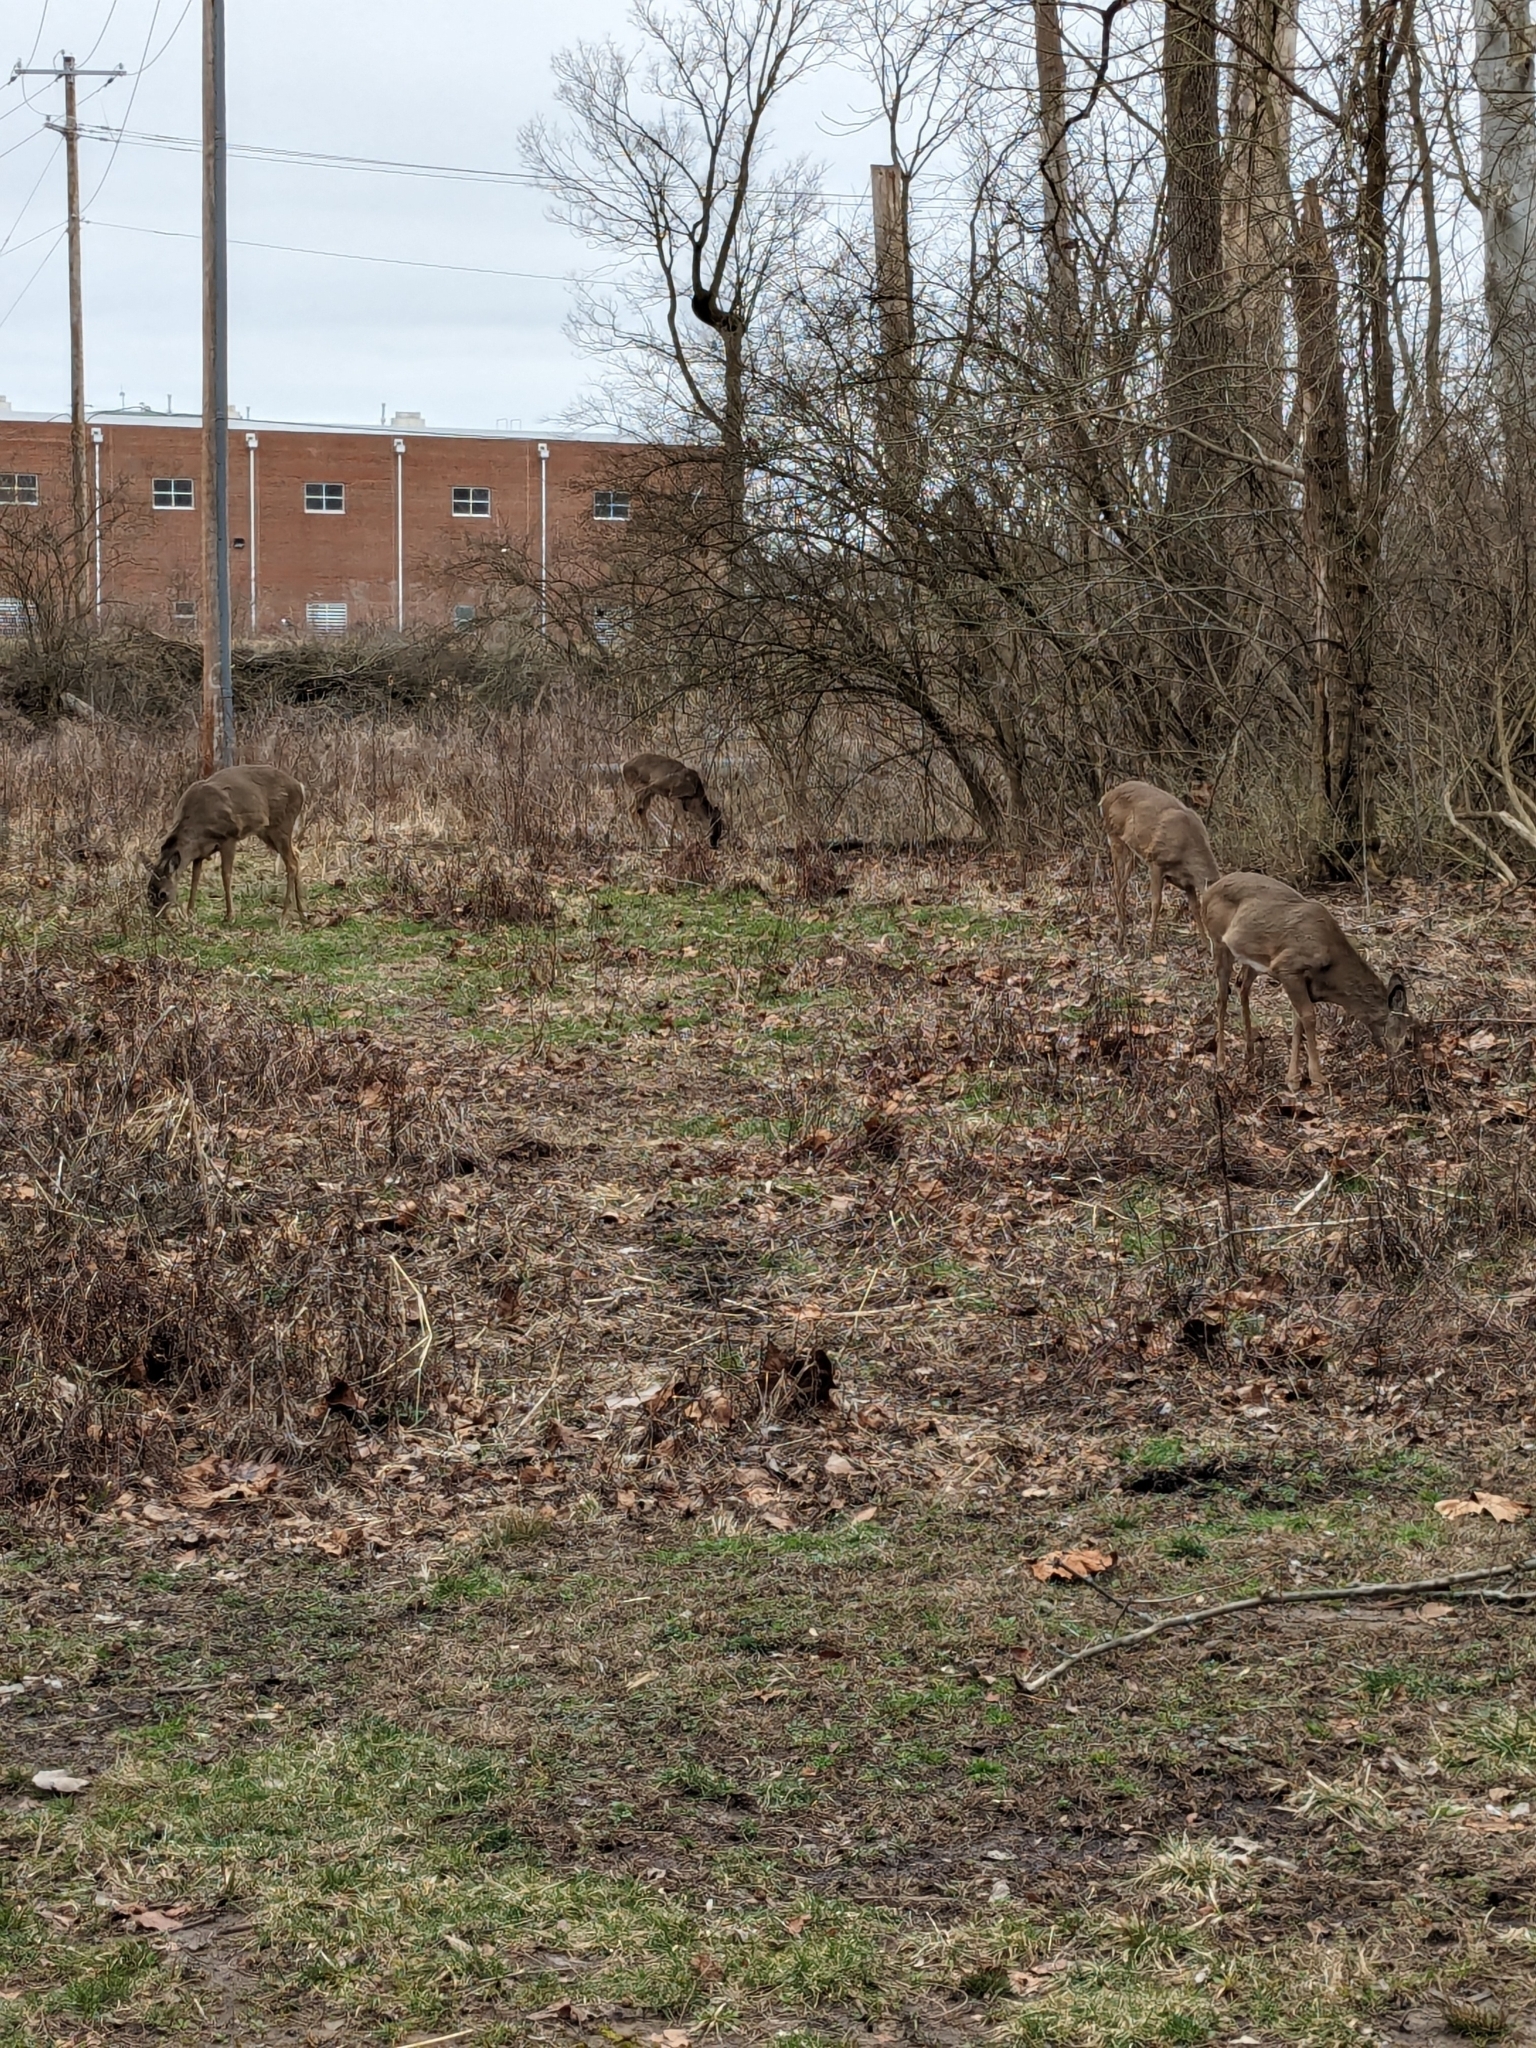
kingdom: Animalia
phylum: Chordata
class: Mammalia
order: Artiodactyla
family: Cervidae
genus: Odocoileus
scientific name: Odocoileus virginianus
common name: White-tailed deer
